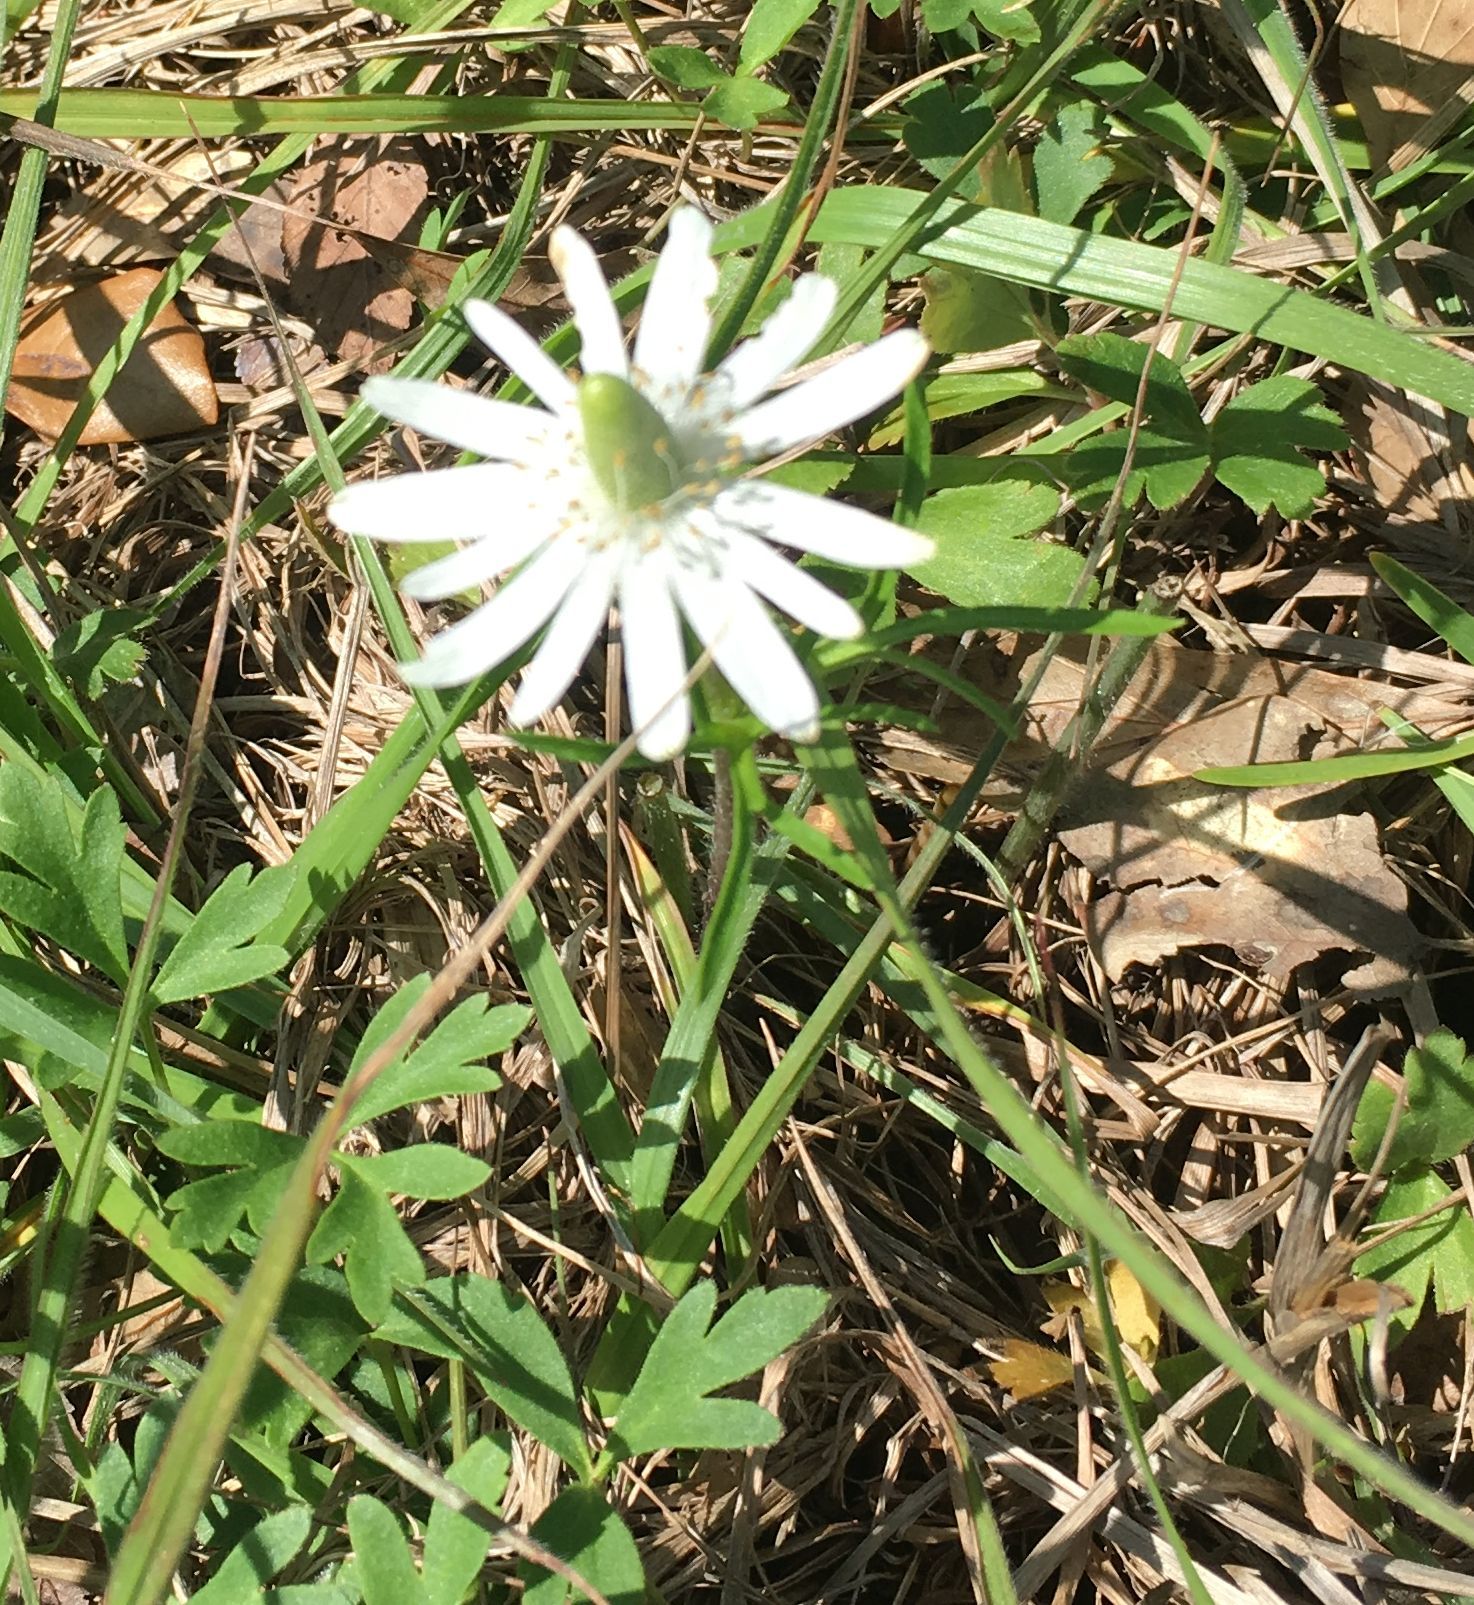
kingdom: Plantae
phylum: Tracheophyta
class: Magnoliopsida
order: Ranunculales
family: Ranunculaceae
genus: Anemone
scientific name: Anemone berlandieri
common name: Ten-petal anemone
